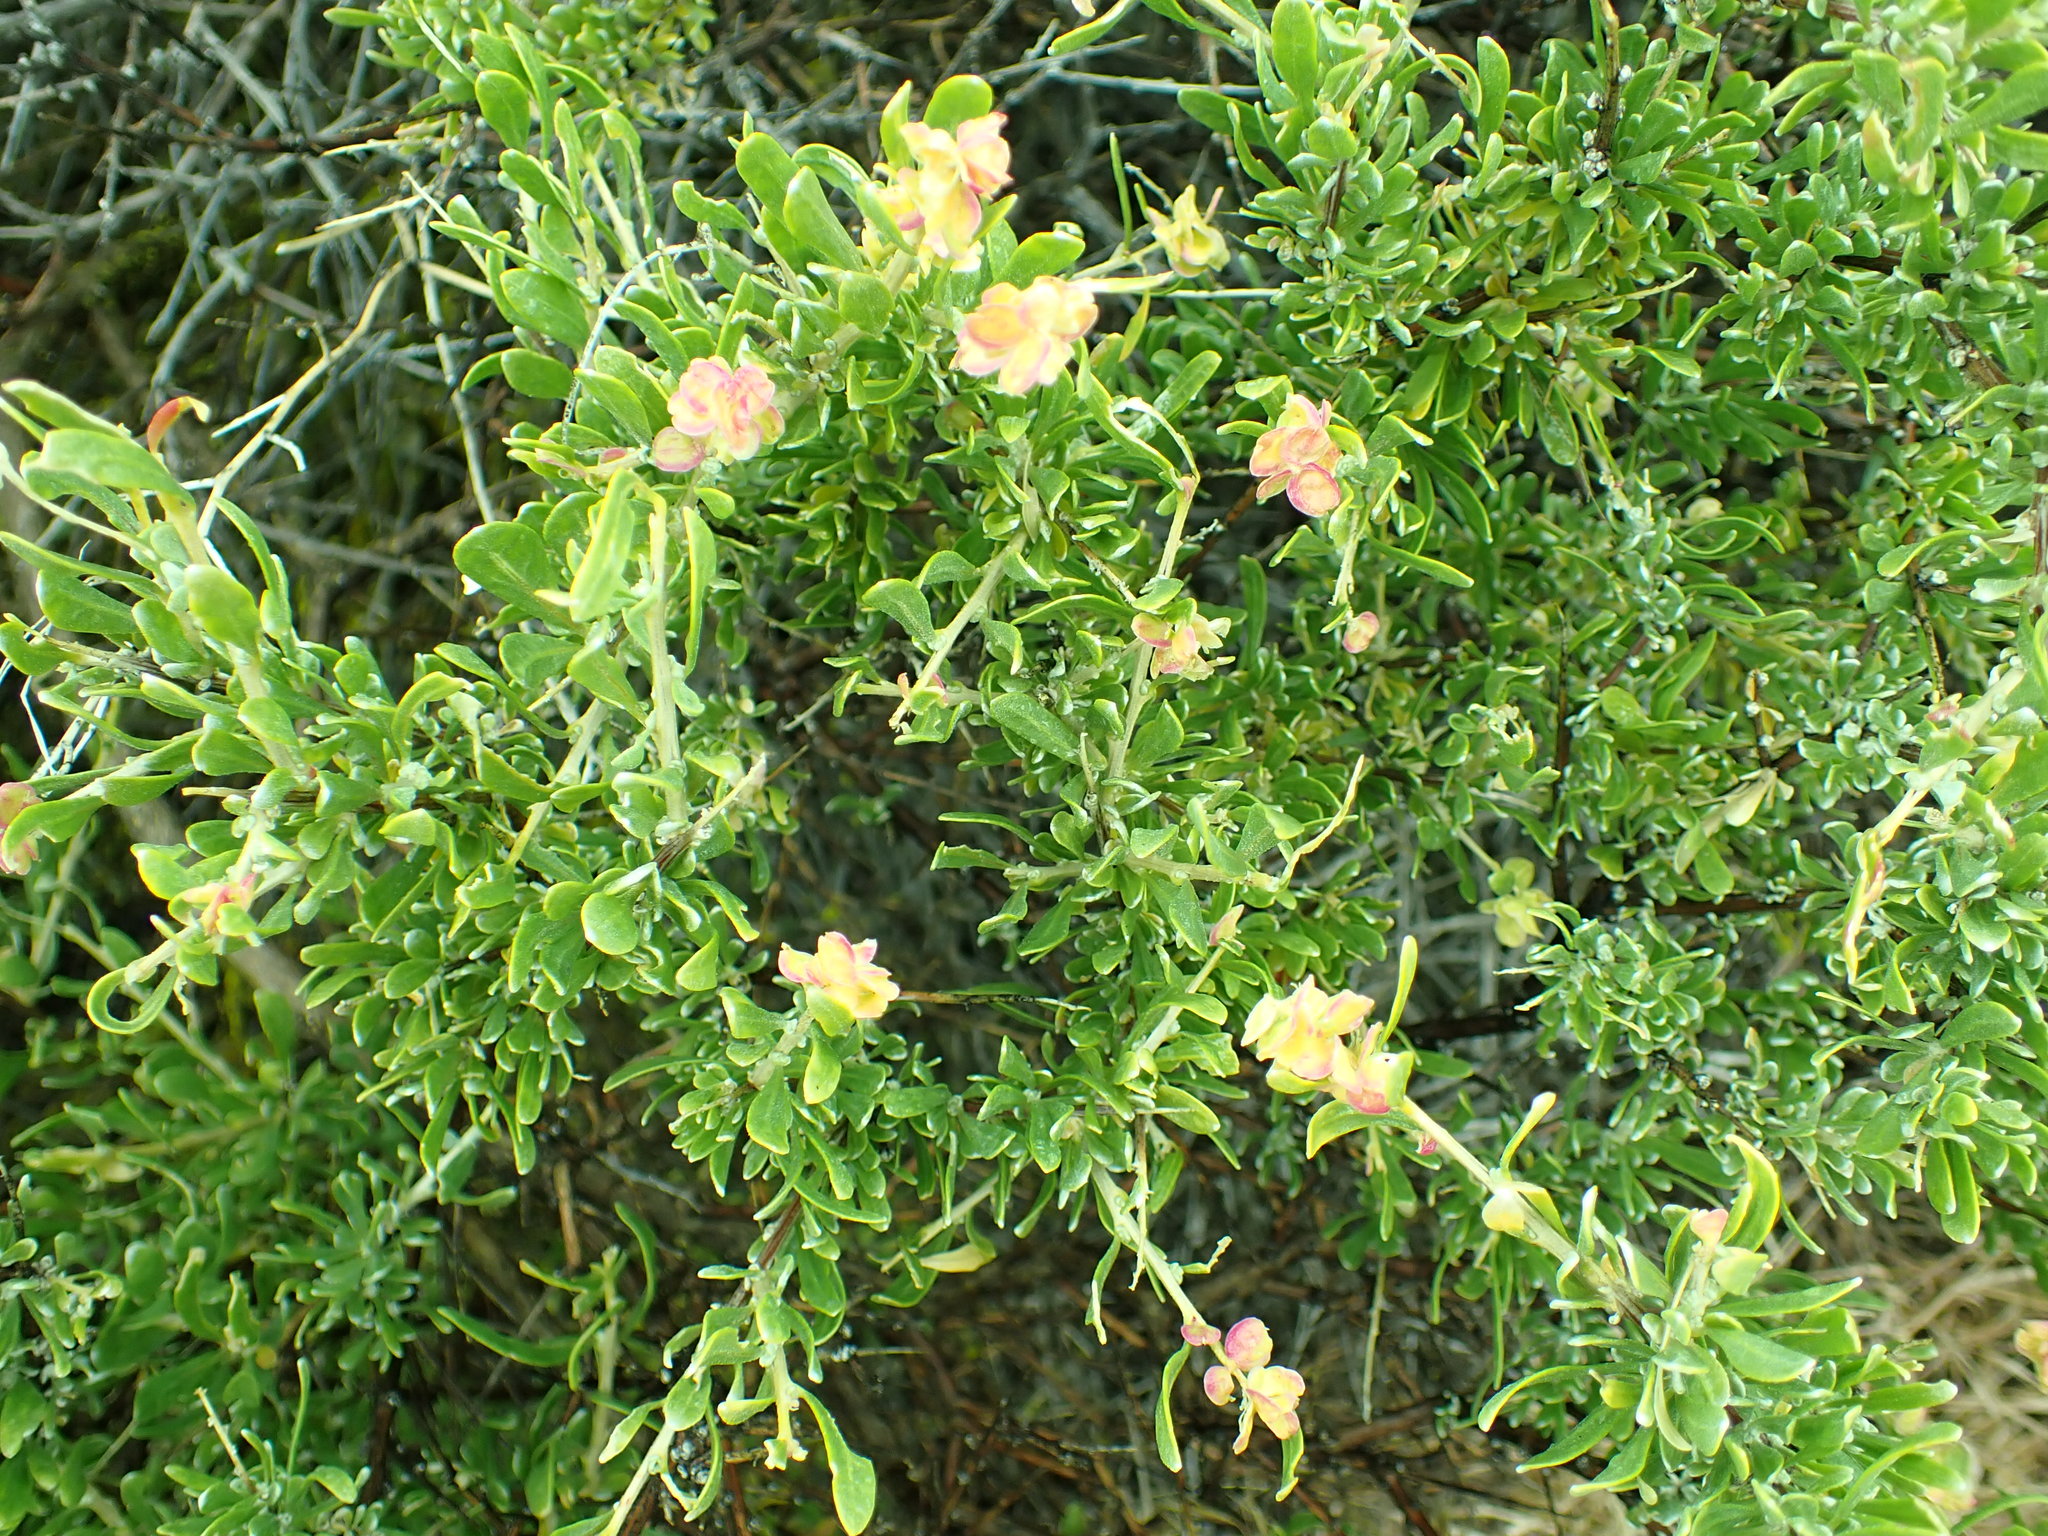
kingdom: Plantae
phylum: Tracheophyta
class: Magnoliopsida
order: Caryophyllales
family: Amaranthaceae
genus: Grayia
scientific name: Grayia spinosa
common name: Spiny hopsage
